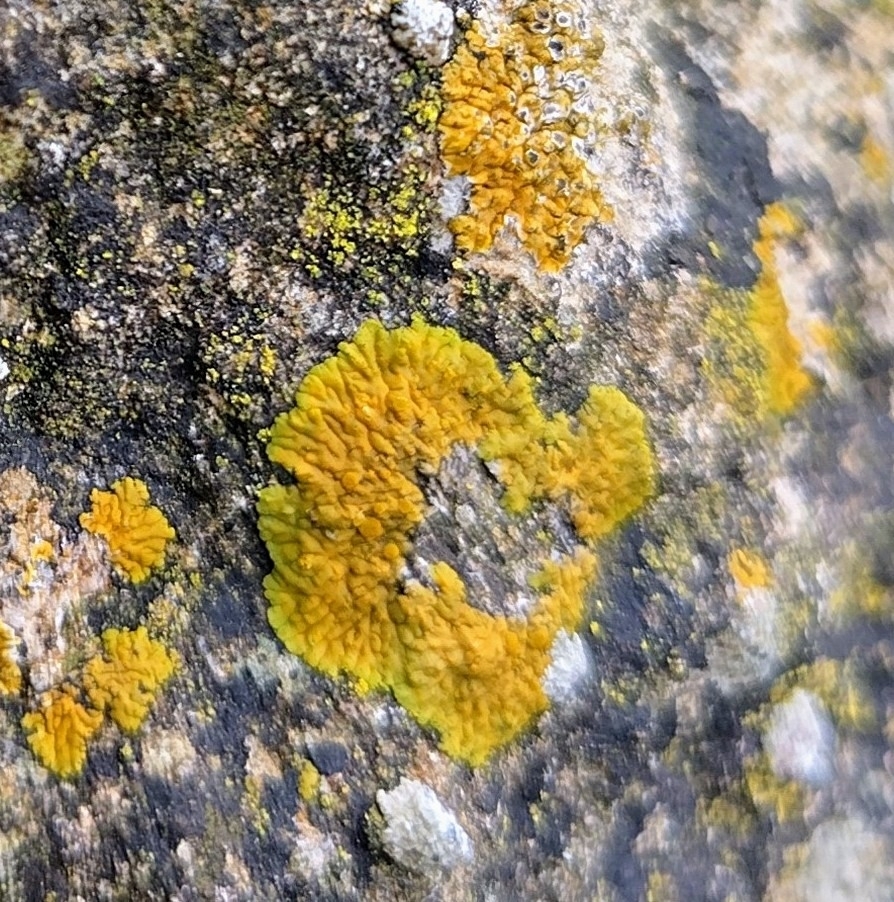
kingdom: Fungi
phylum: Ascomycota
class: Lecanoromycetes
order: Teloschistales
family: Teloschistaceae
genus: Variospora
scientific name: Variospora flavescens
